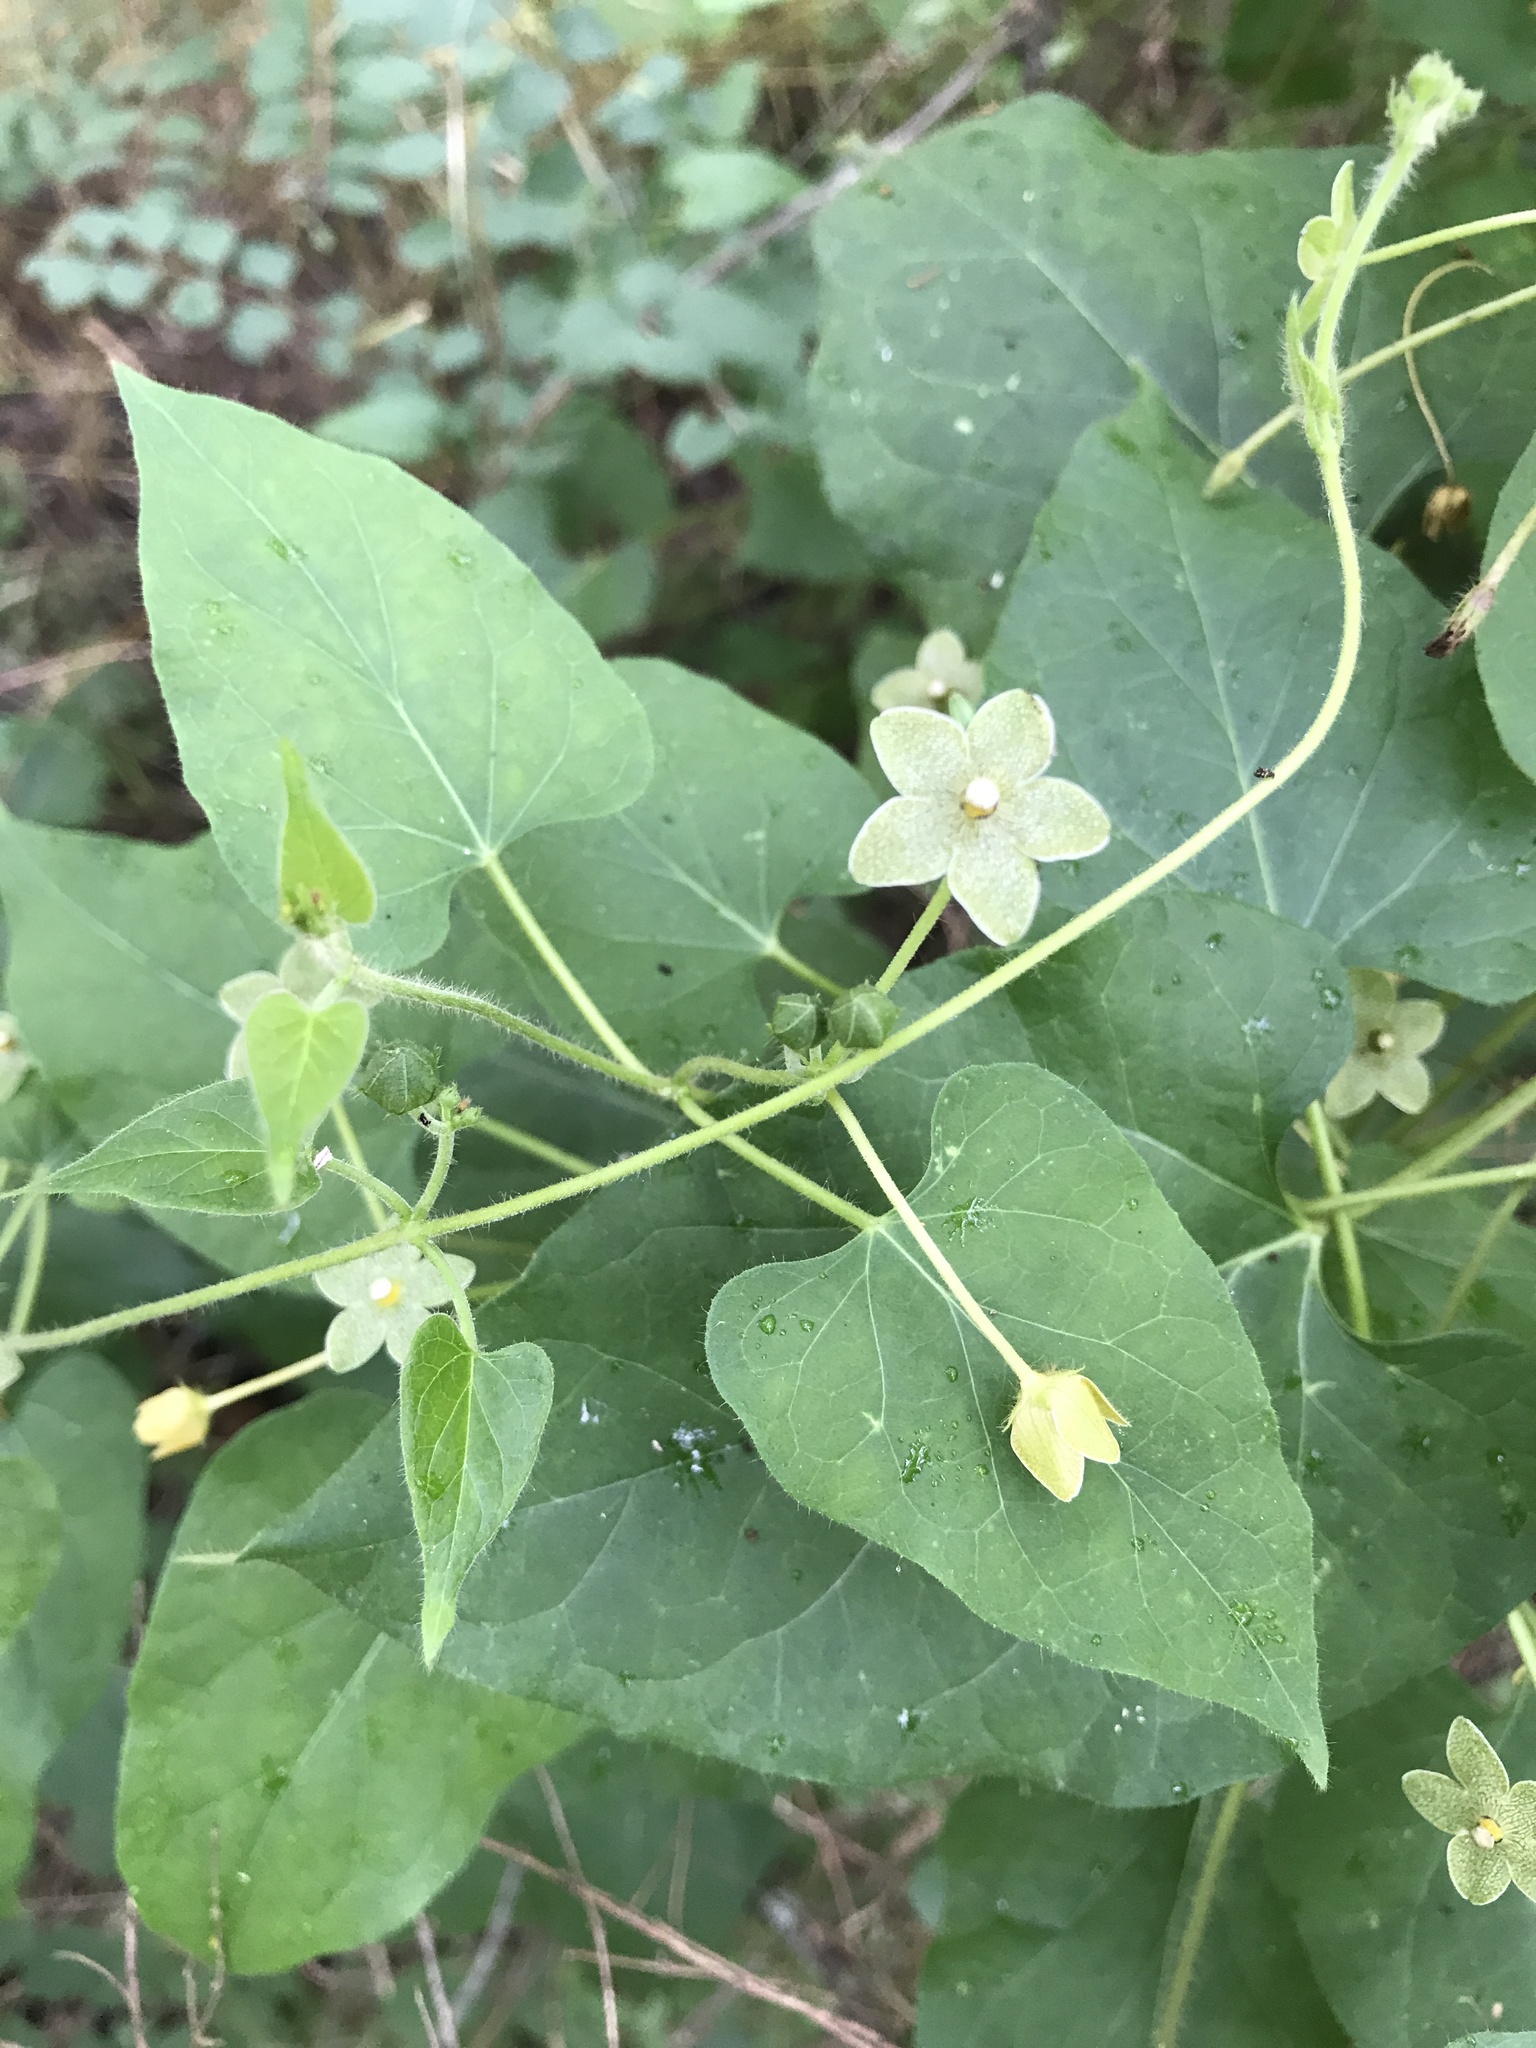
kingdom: Plantae
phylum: Tracheophyta
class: Magnoliopsida
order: Gentianales
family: Apocynaceae
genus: Dictyanthus
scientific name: Dictyanthus reticulatus
